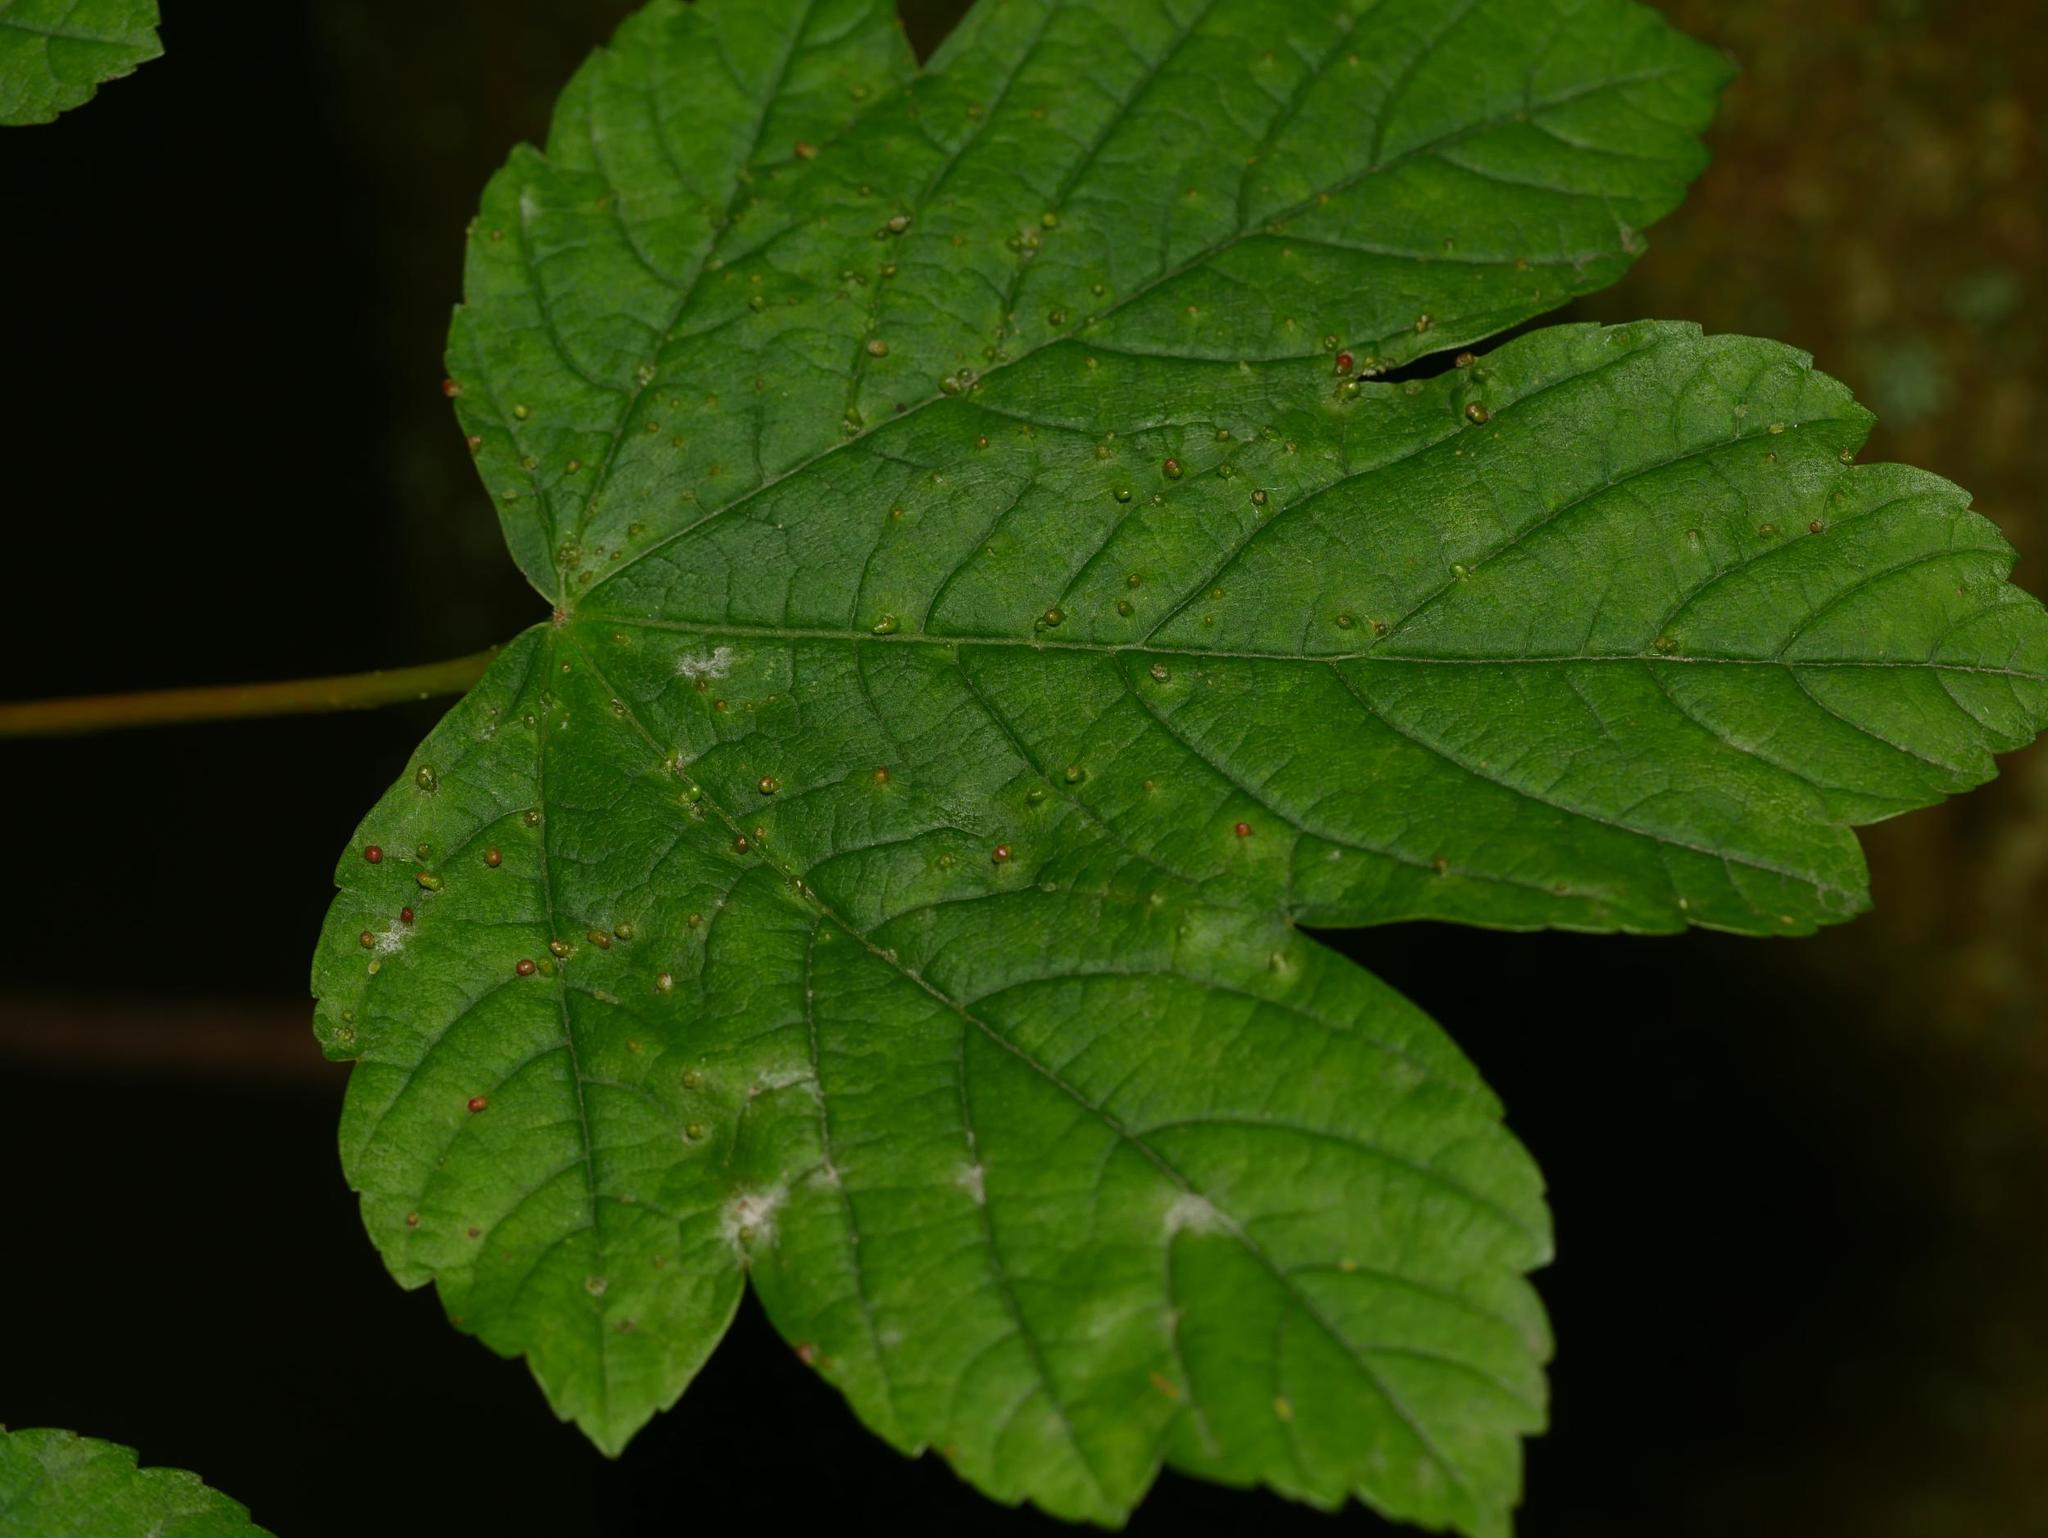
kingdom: Plantae
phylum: Tracheophyta
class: Magnoliopsida
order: Sapindales
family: Sapindaceae
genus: Acer
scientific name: Acer pseudoplatanus
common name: Sycamore
